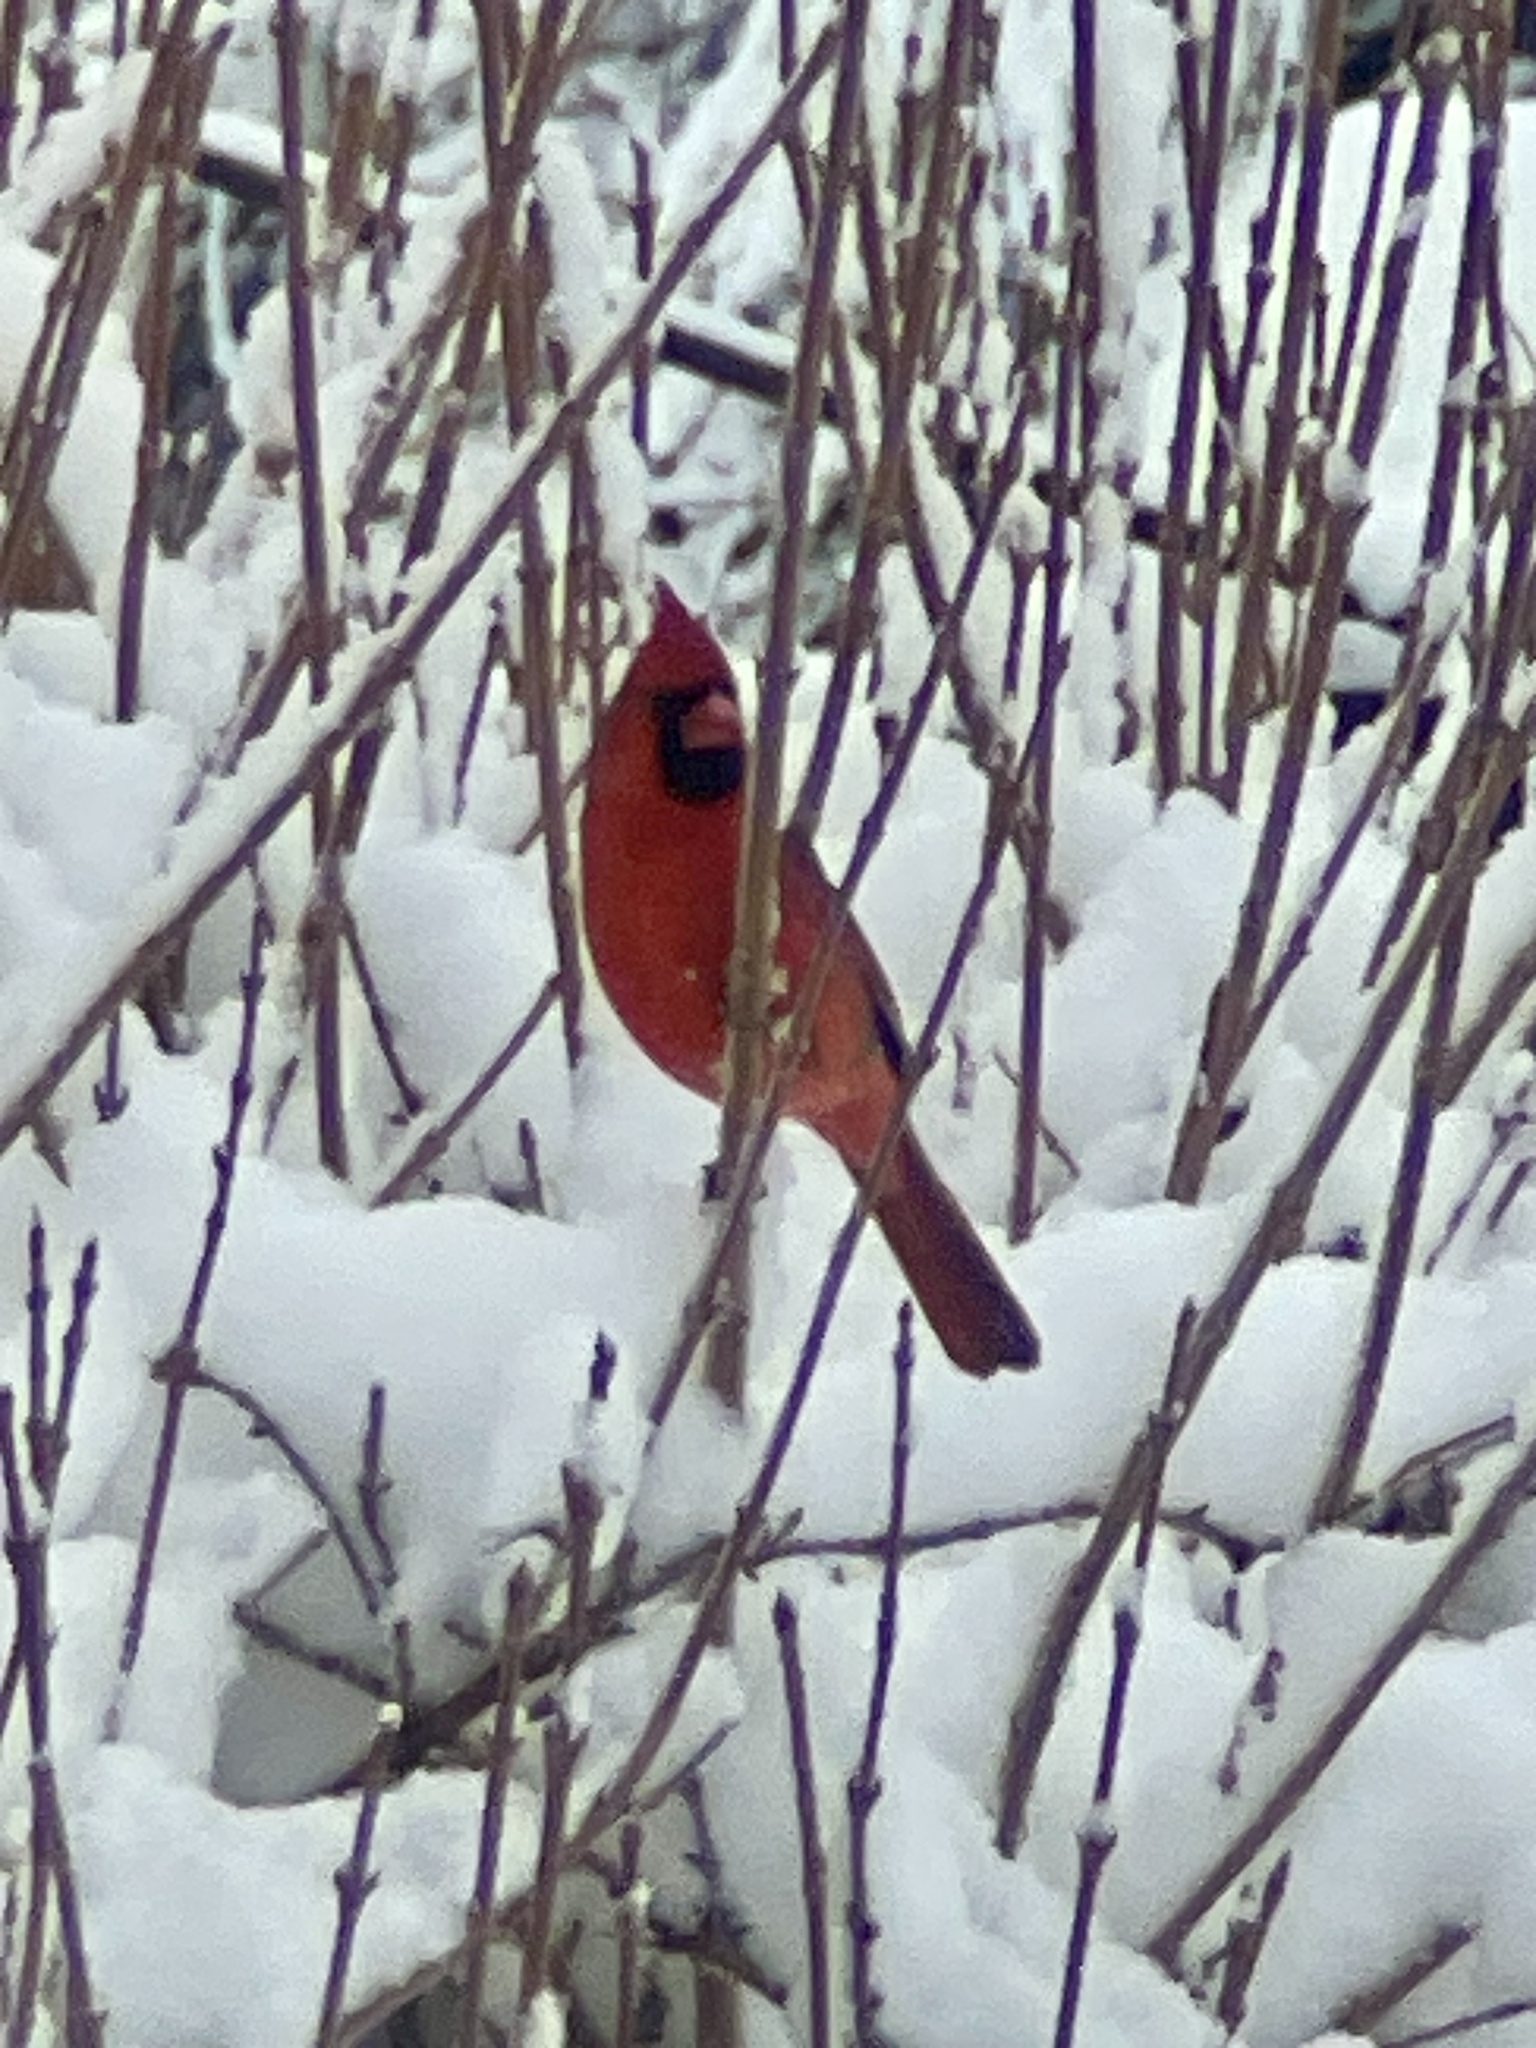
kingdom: Animalia
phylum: Chordata
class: Aves
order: Passeriformes
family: Cardinalidae
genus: Cardinalis
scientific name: Cardinalis cardinalis
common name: Northern cardinal
